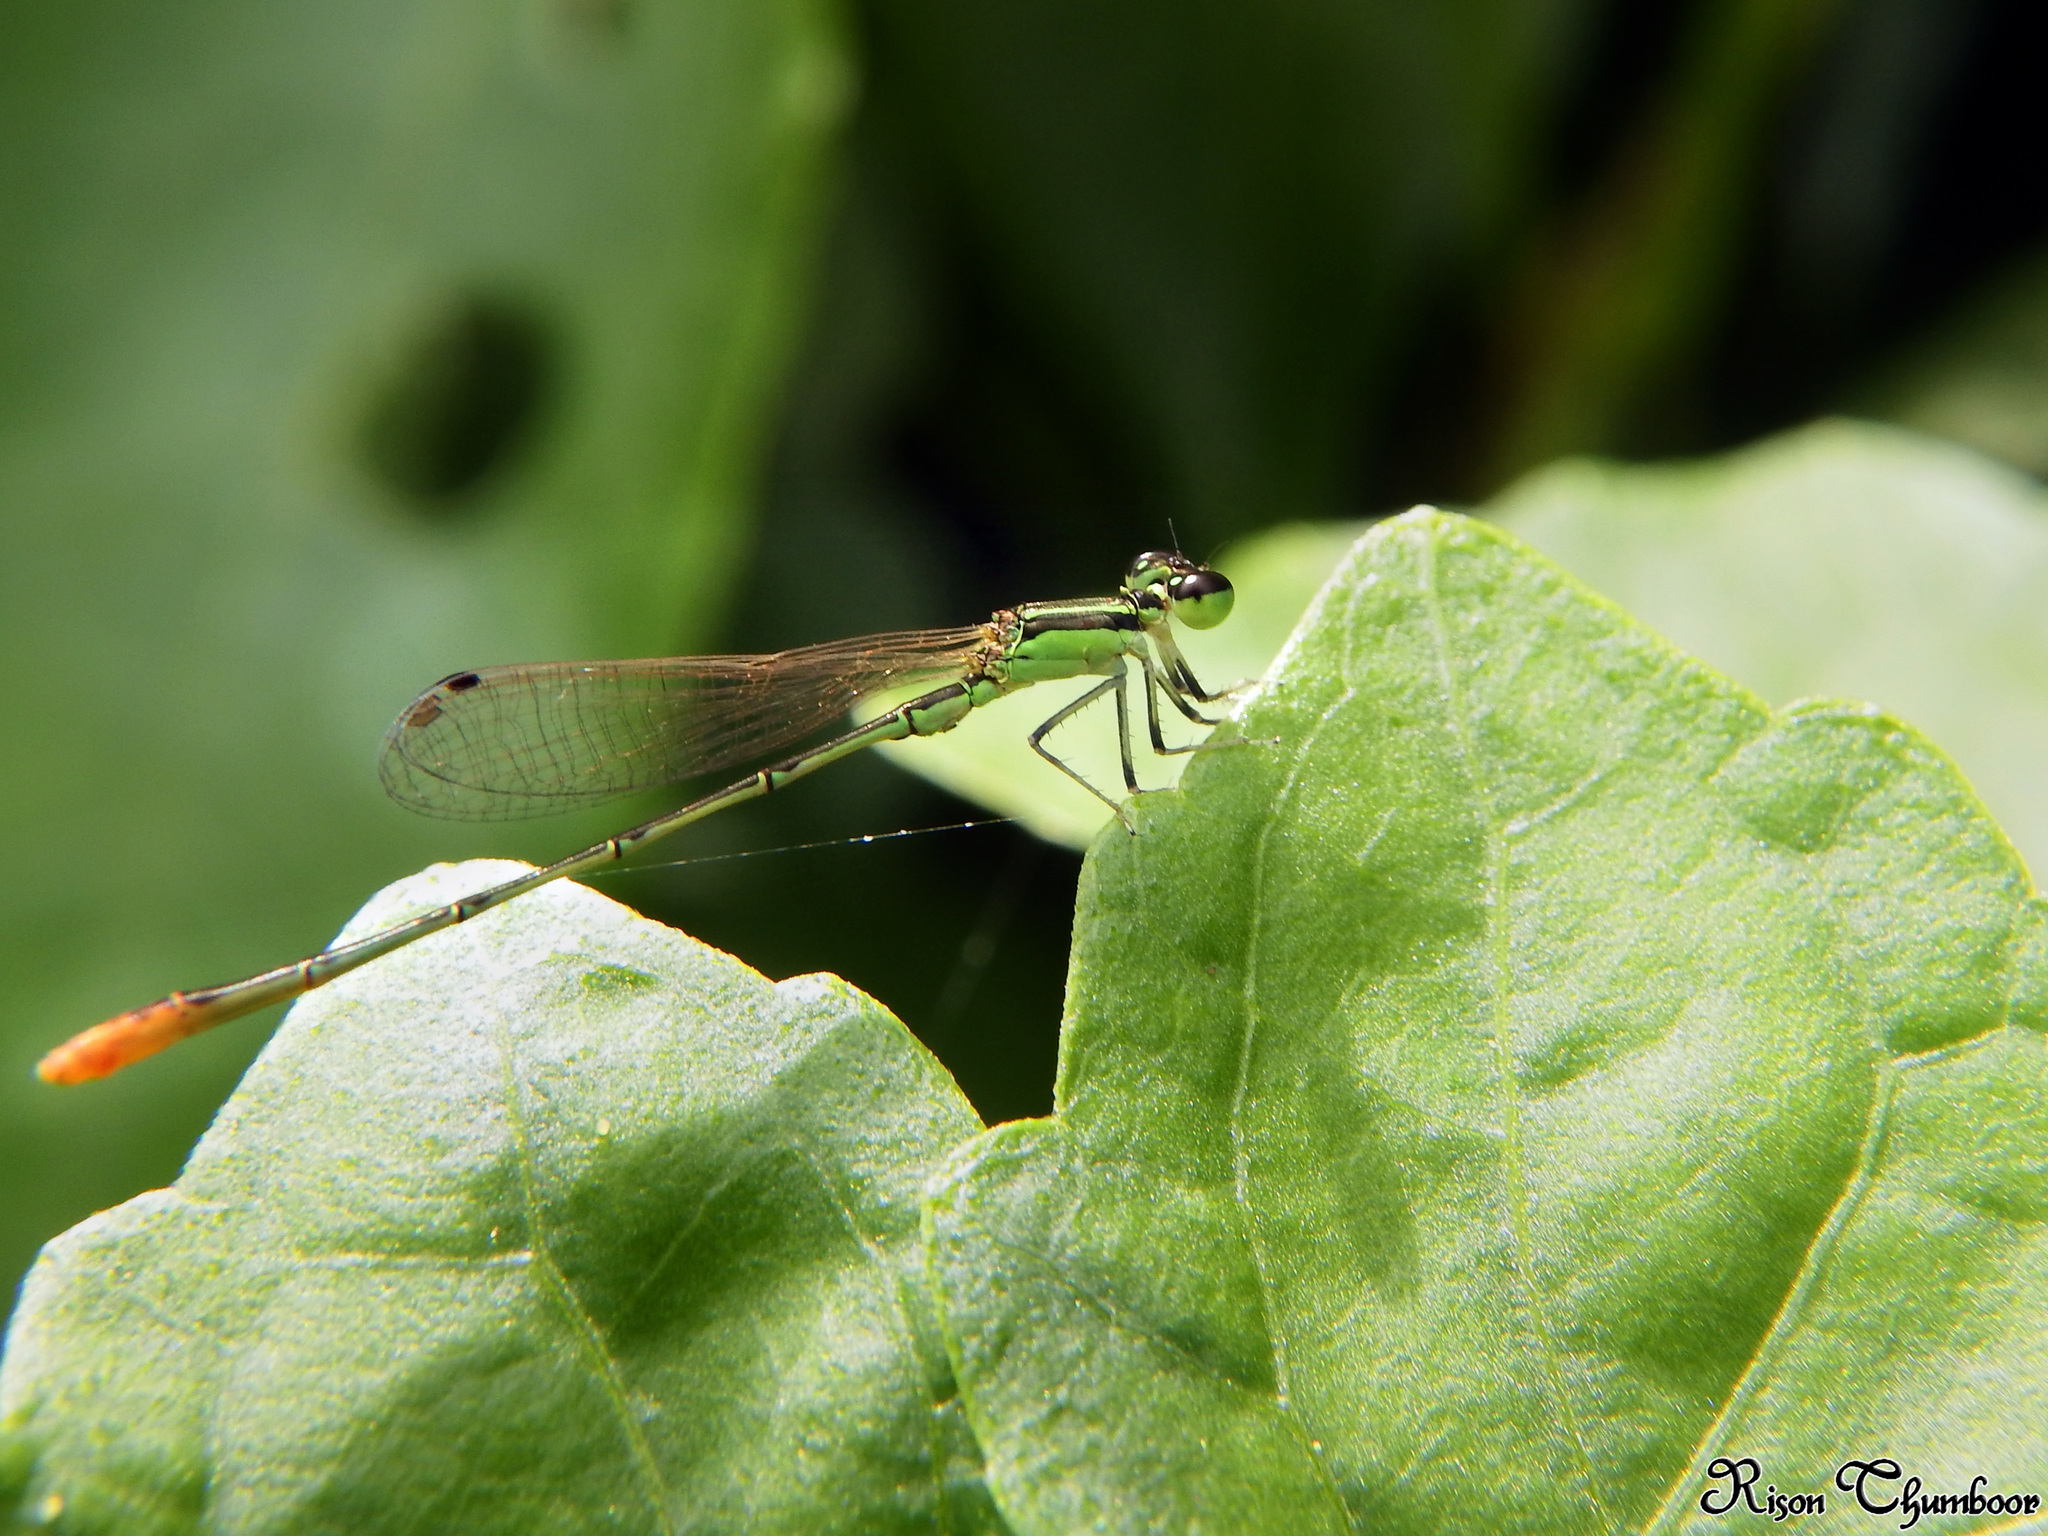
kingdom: Animalia
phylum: Arthropoda
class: Insecta
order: Odonata
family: Coenagrionidae
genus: Agriocnemis
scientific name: Agriocnemis pygmaea
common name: Pygmy wisp
